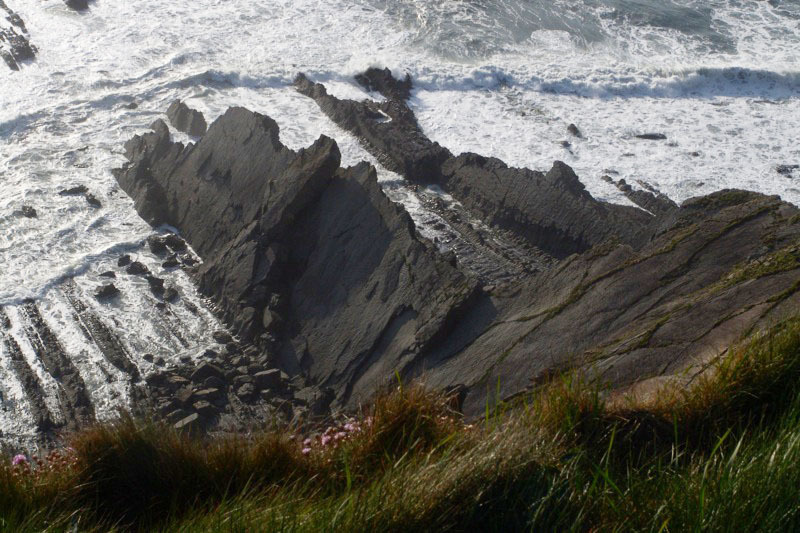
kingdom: Plantae
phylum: Tracheophyta
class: Magnoliopsida
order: Caryophyllales
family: Plumbaginaceae
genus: Armeria
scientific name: Armeria maritima
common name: Thrift
